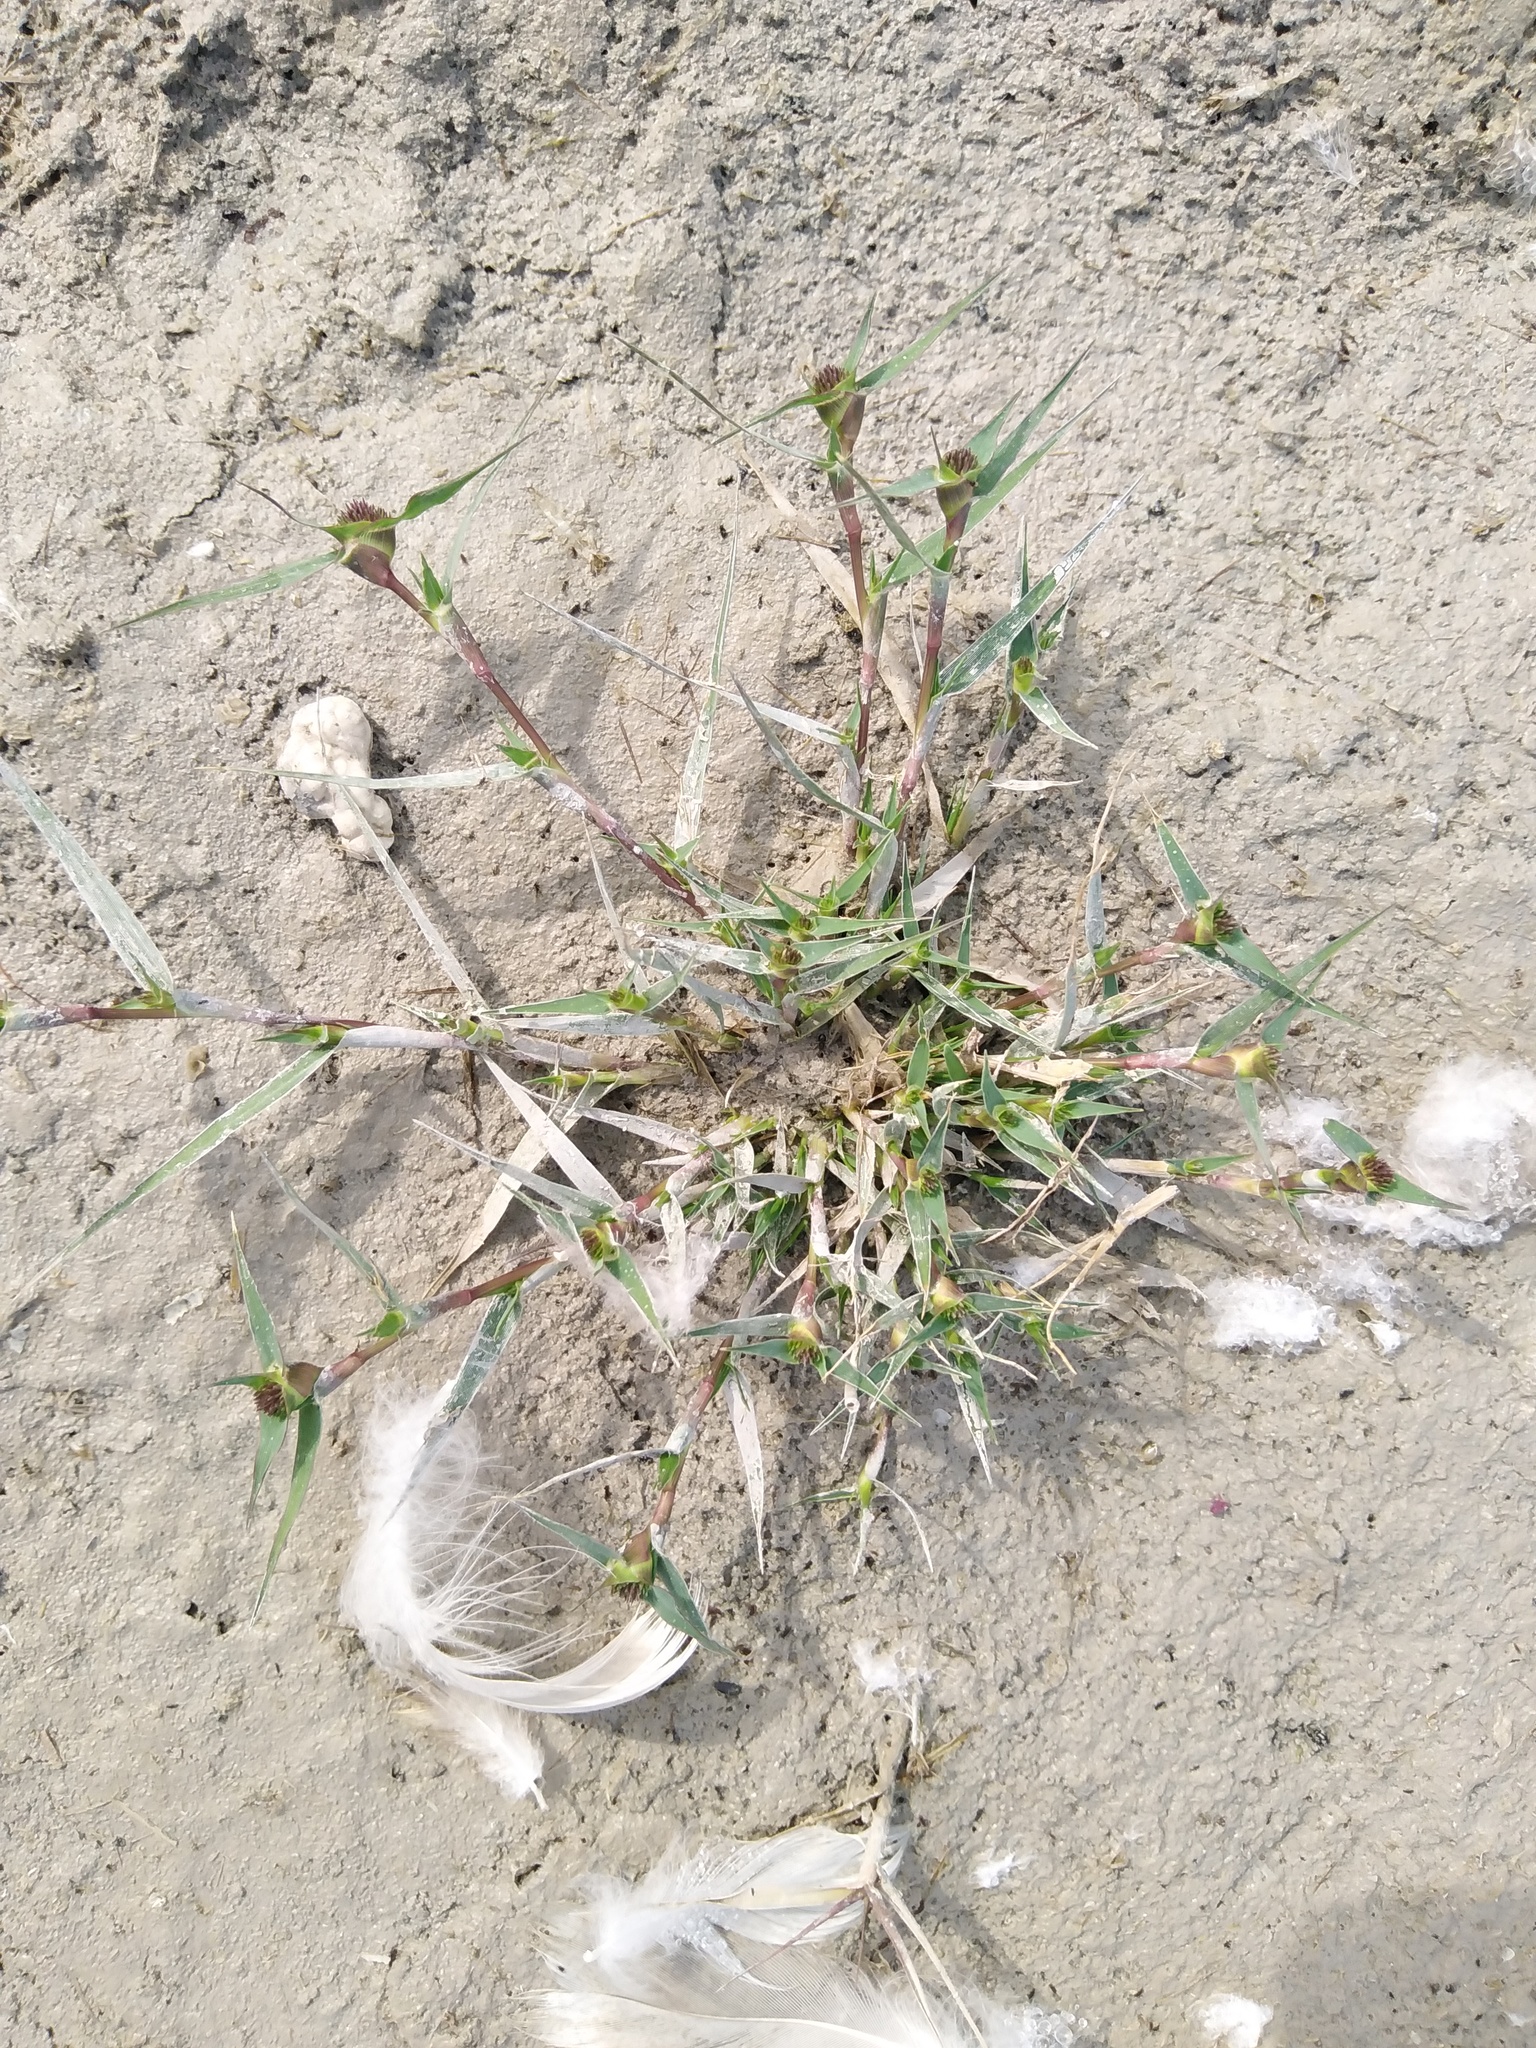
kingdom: Plantae
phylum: Tracheophyta
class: Liliopsida
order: Poales
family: Poaceae
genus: Sporobolus
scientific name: Sporobolus aculeatus
